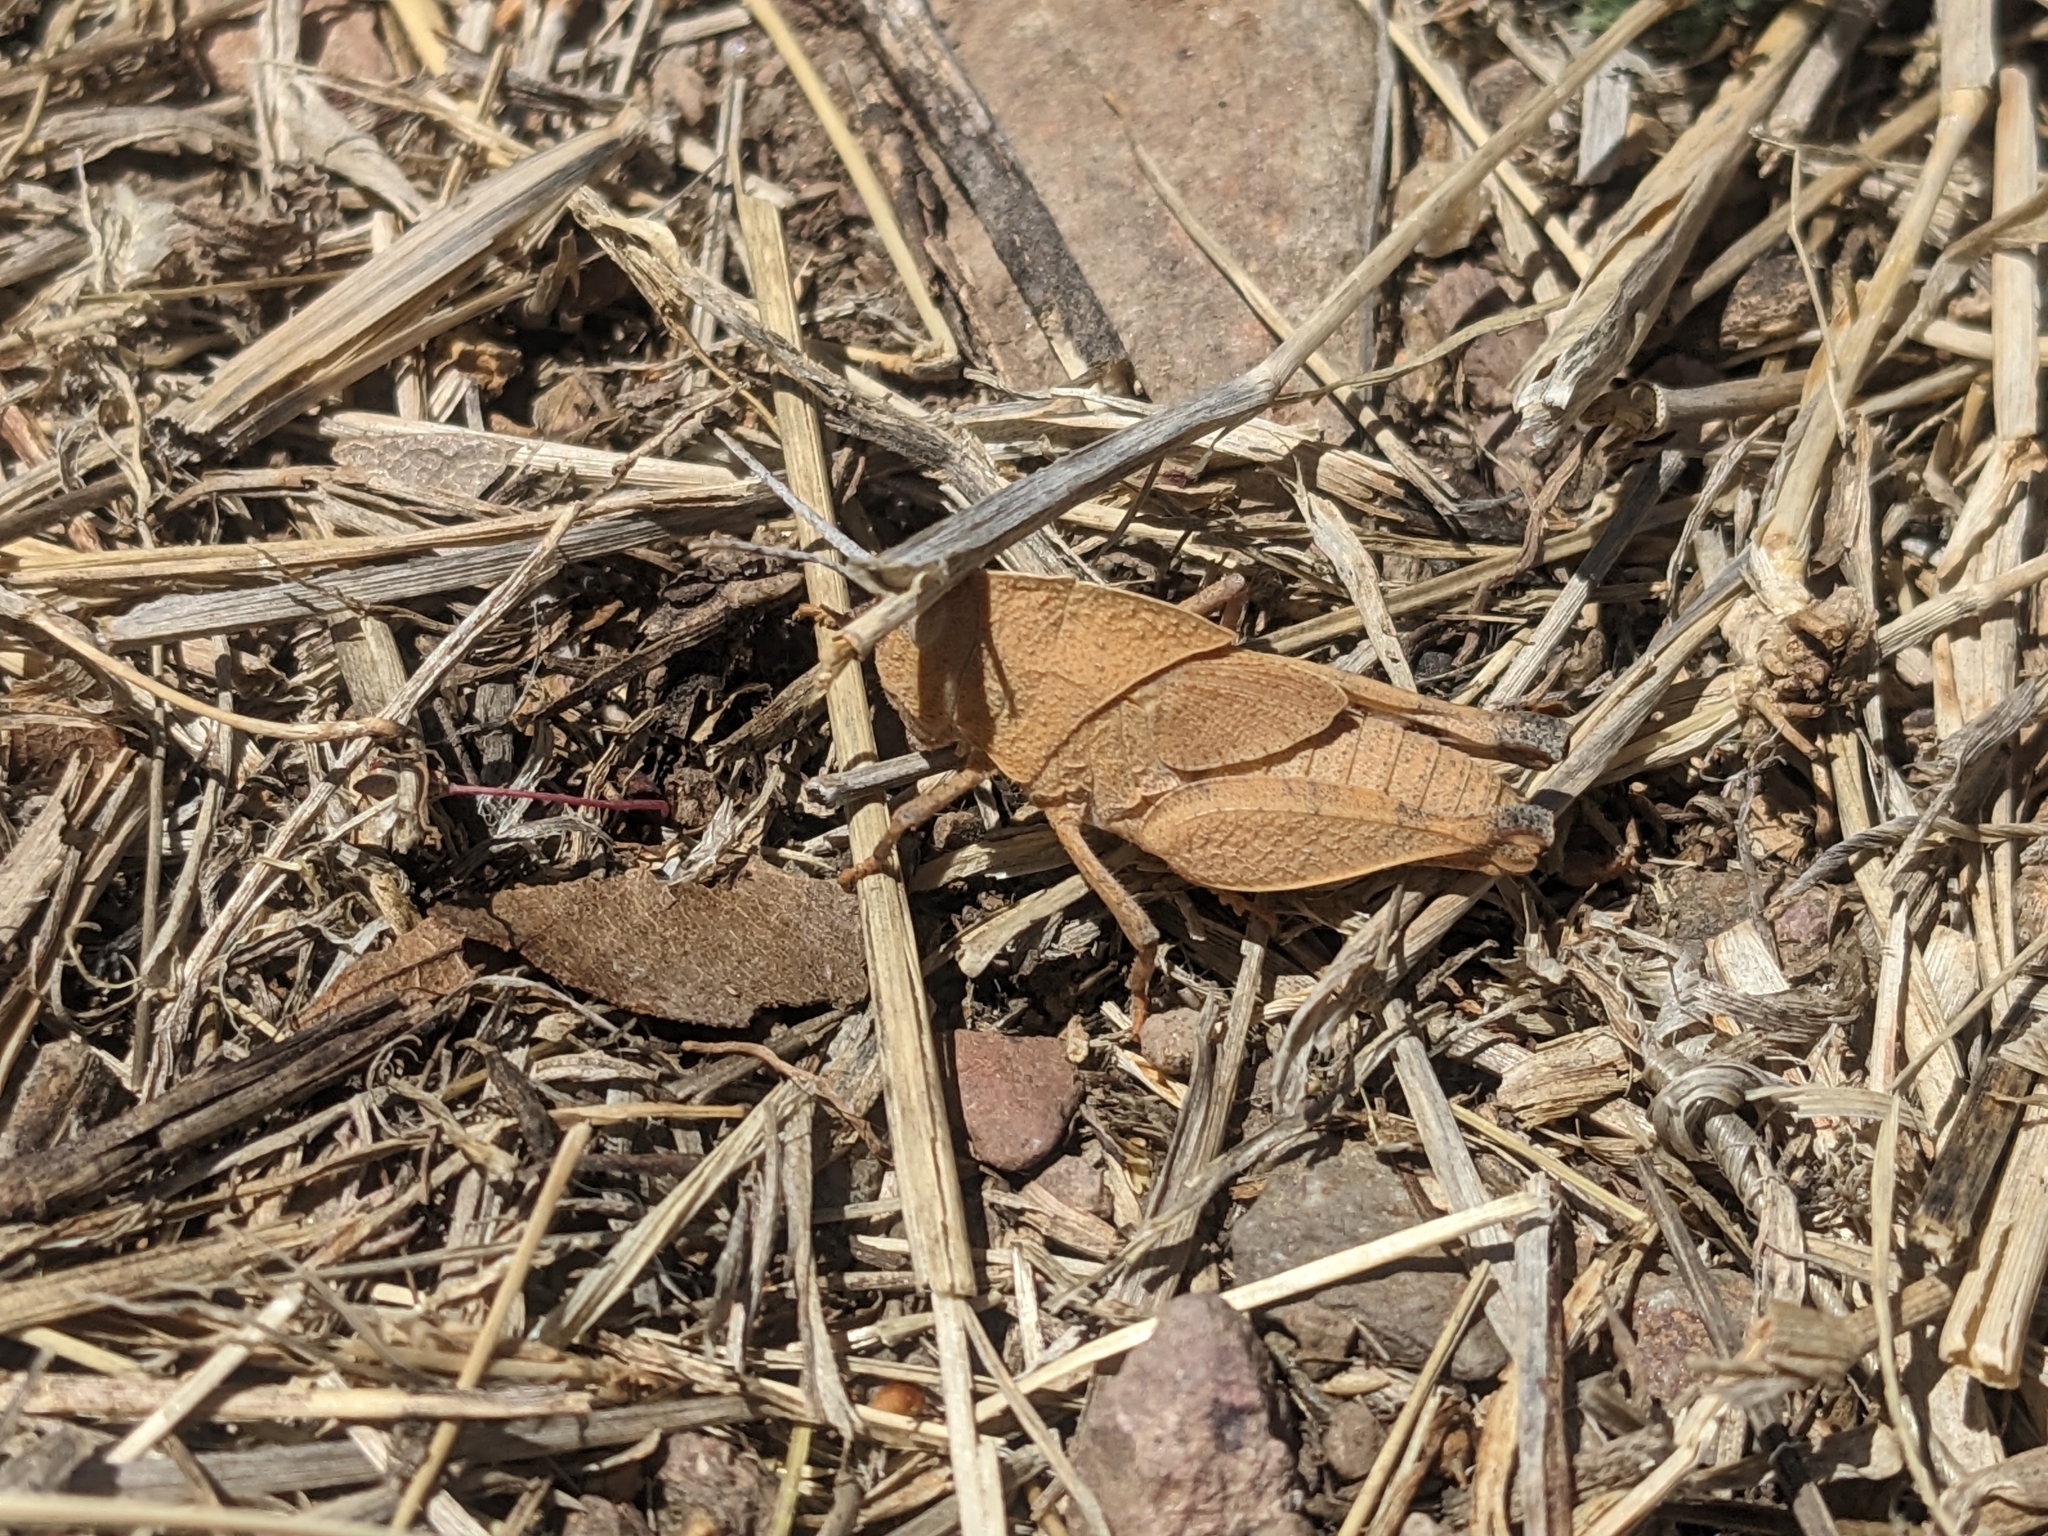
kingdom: Animalia
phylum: Arthropoda
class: Insecta
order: Orthoptera
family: Acrididae
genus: Tomonotus
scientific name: Tomonotus ferruginosus
